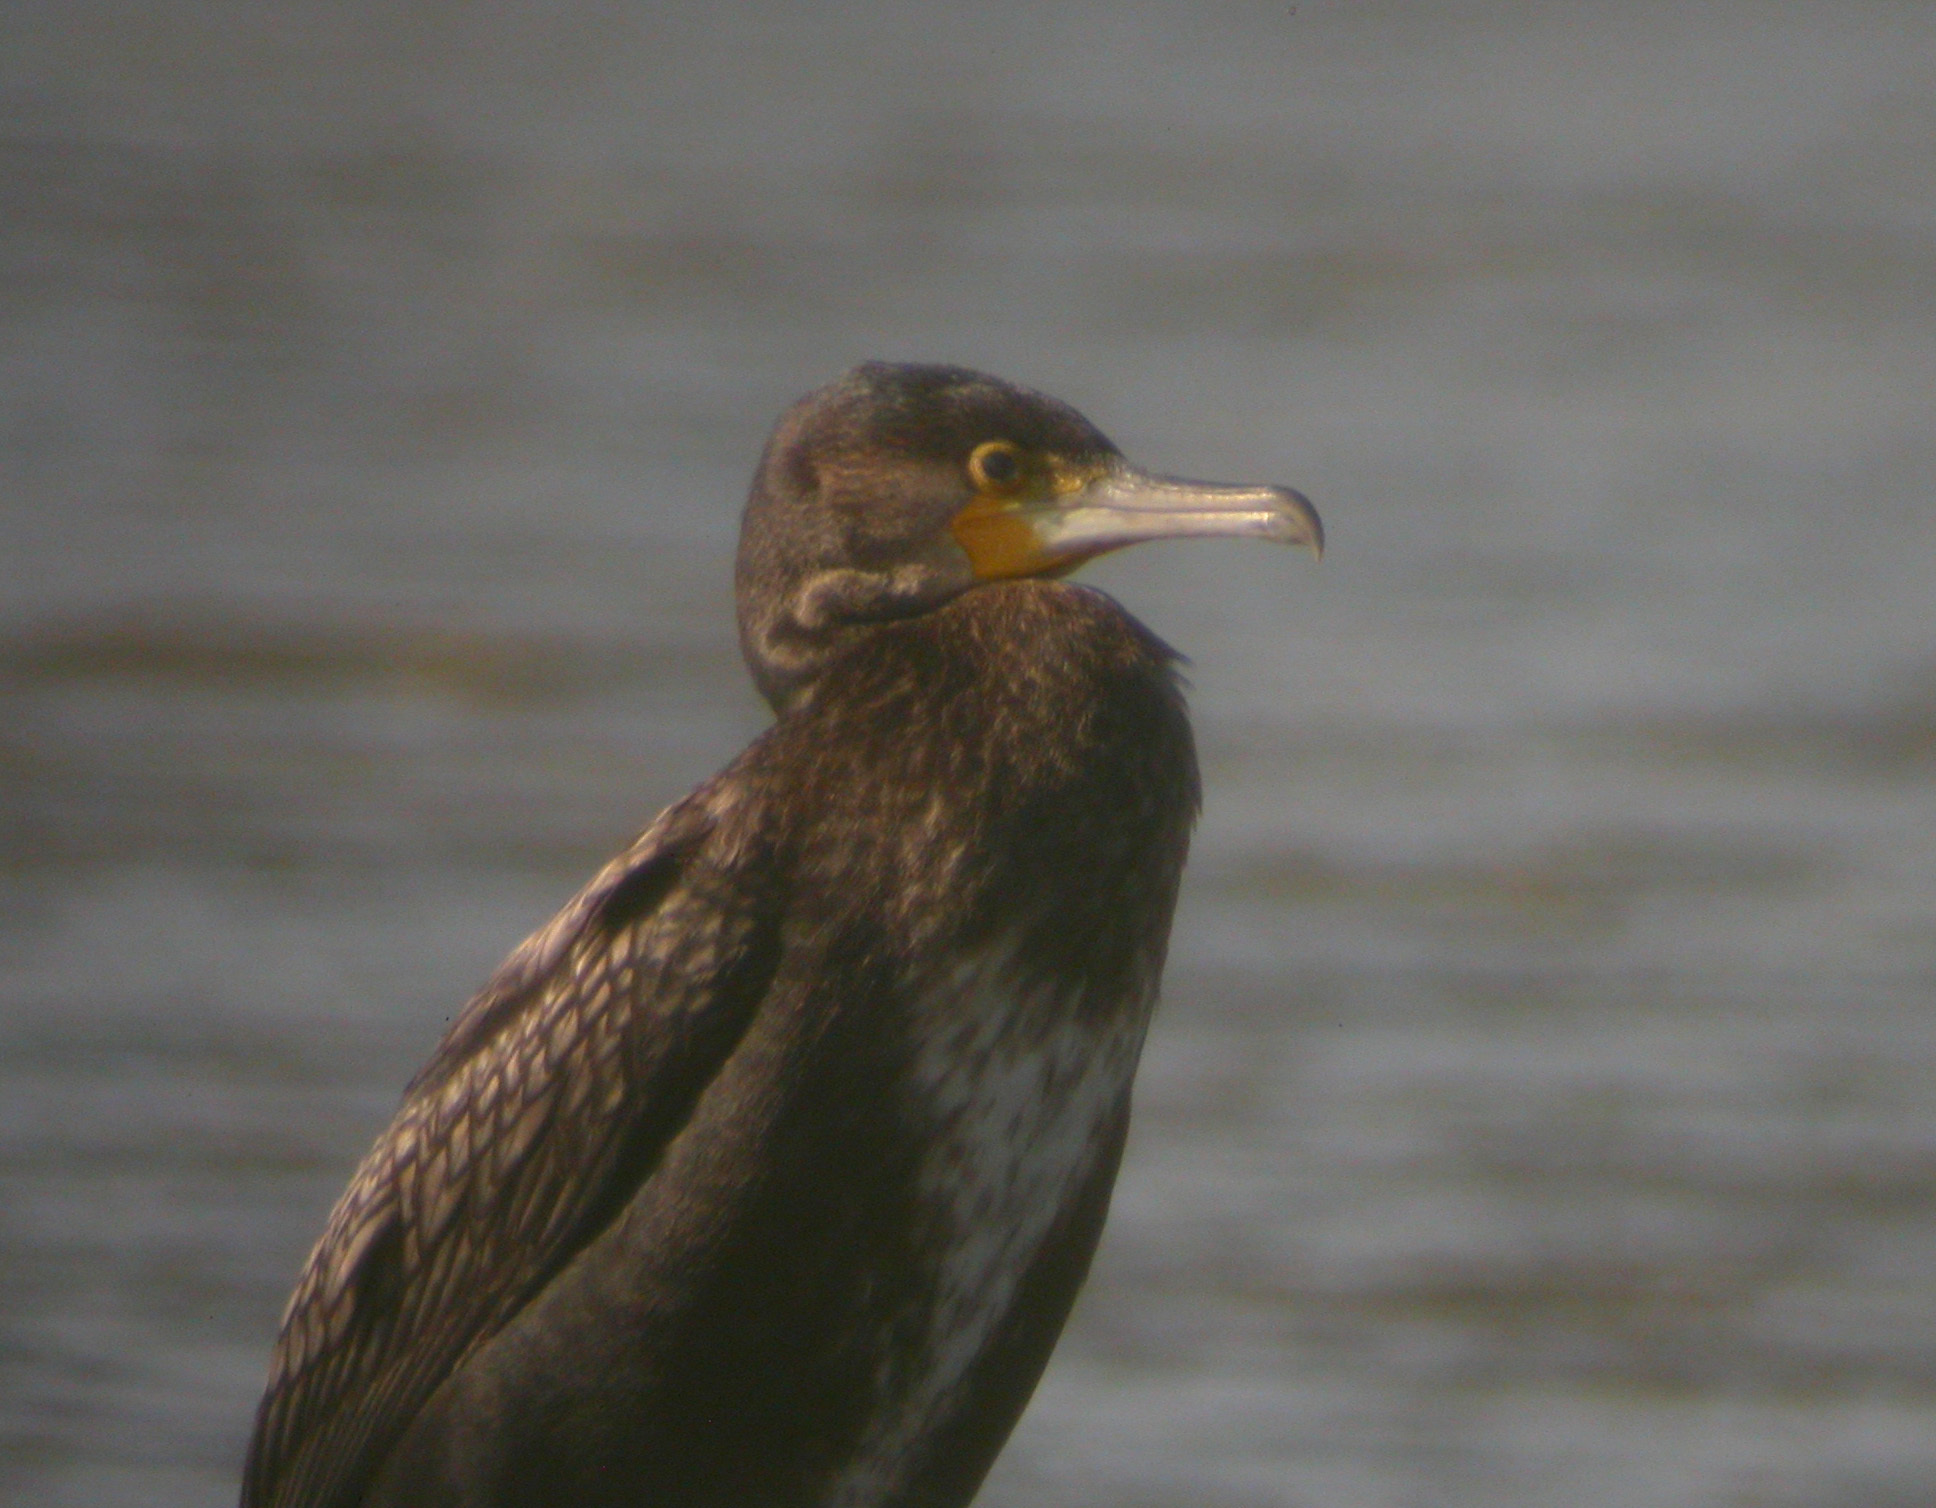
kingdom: Animalia
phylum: Chordata
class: Aves
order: Suliformes
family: Phalacrocoracidae
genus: Phalacrocorax
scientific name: Phalacrocorax carbo
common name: Great cormorant
